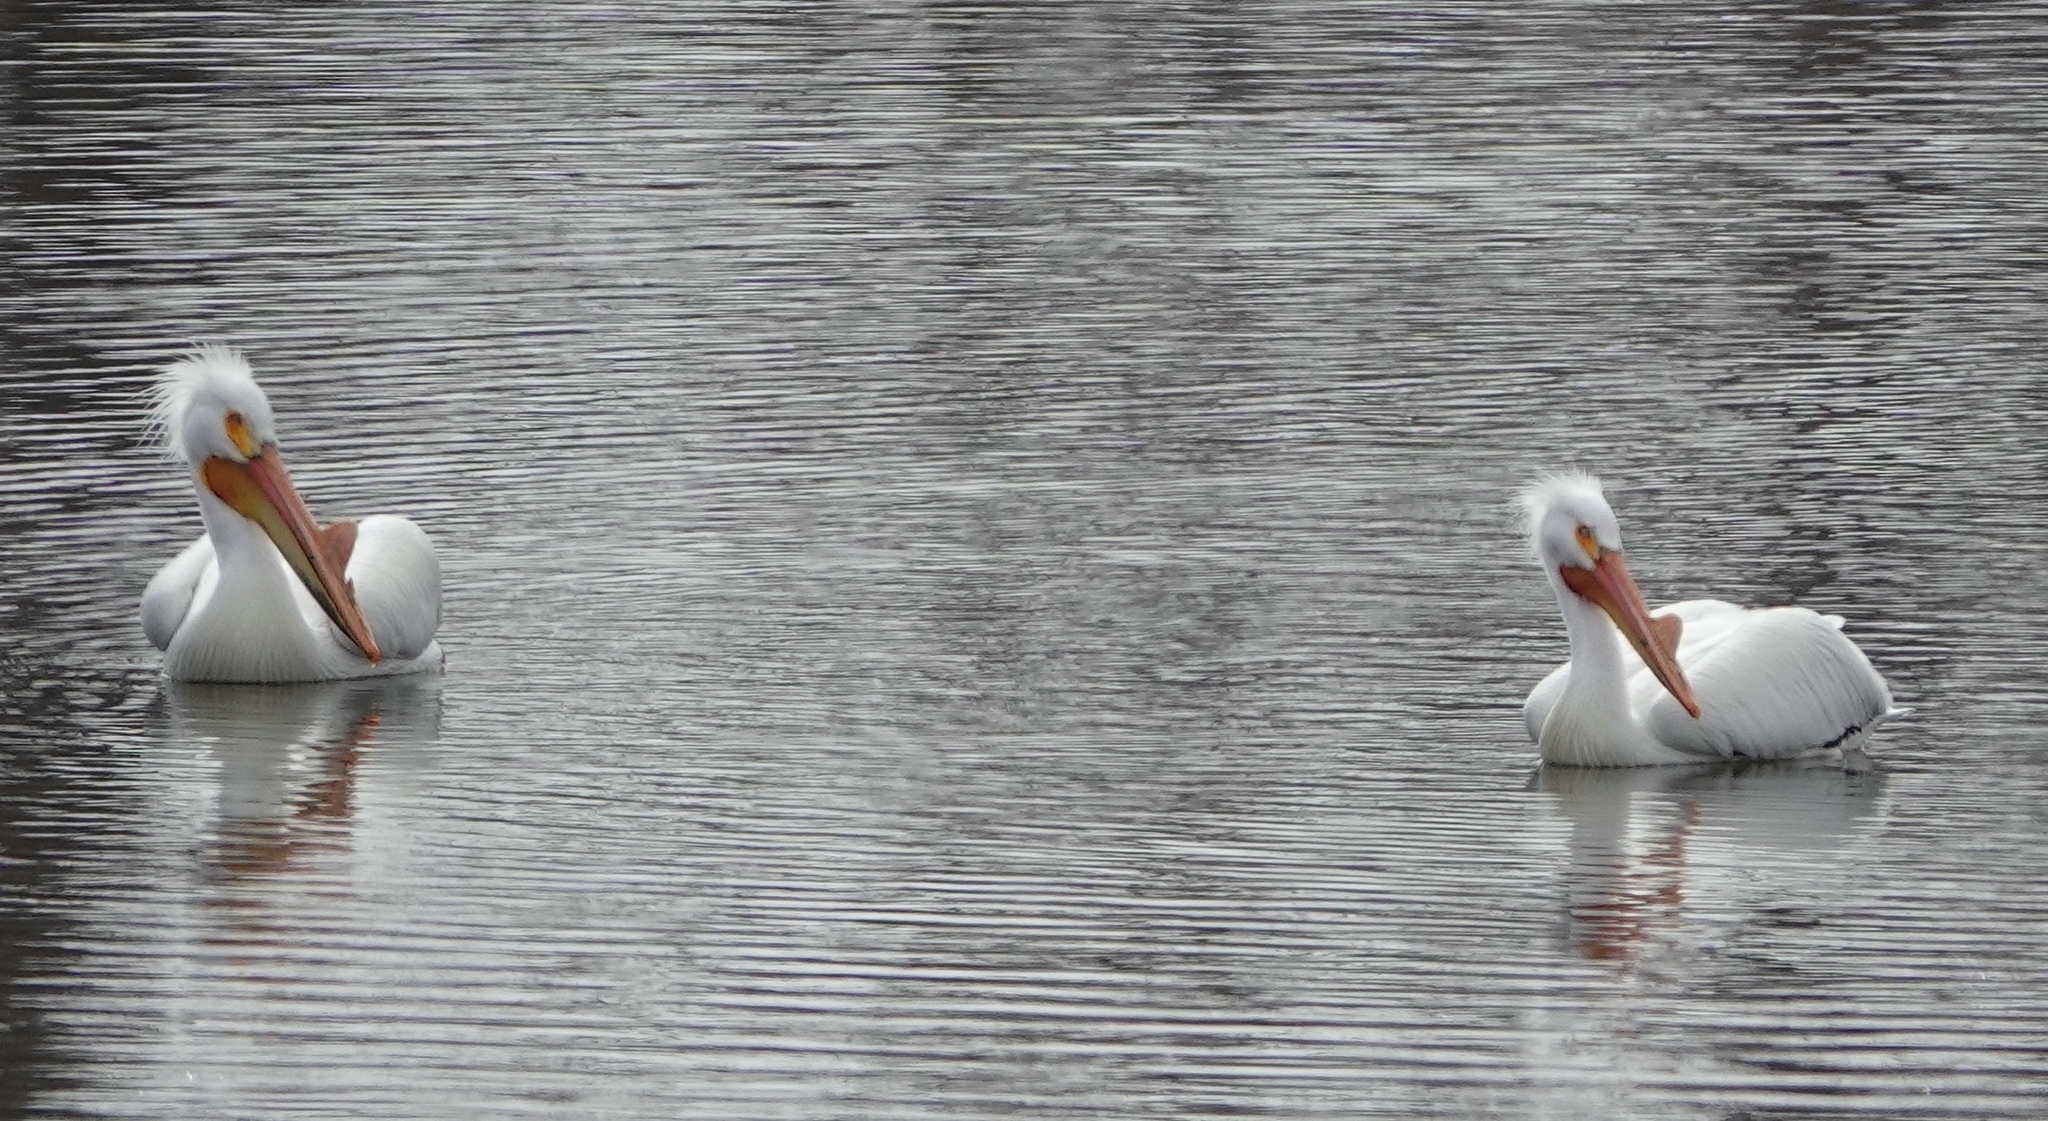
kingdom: Animalia
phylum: Chordata
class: Aves
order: Pelecaniformes
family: Pelecanidae
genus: Pelecanus
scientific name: Pelecanus erythrorhynchos
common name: American white pelican
